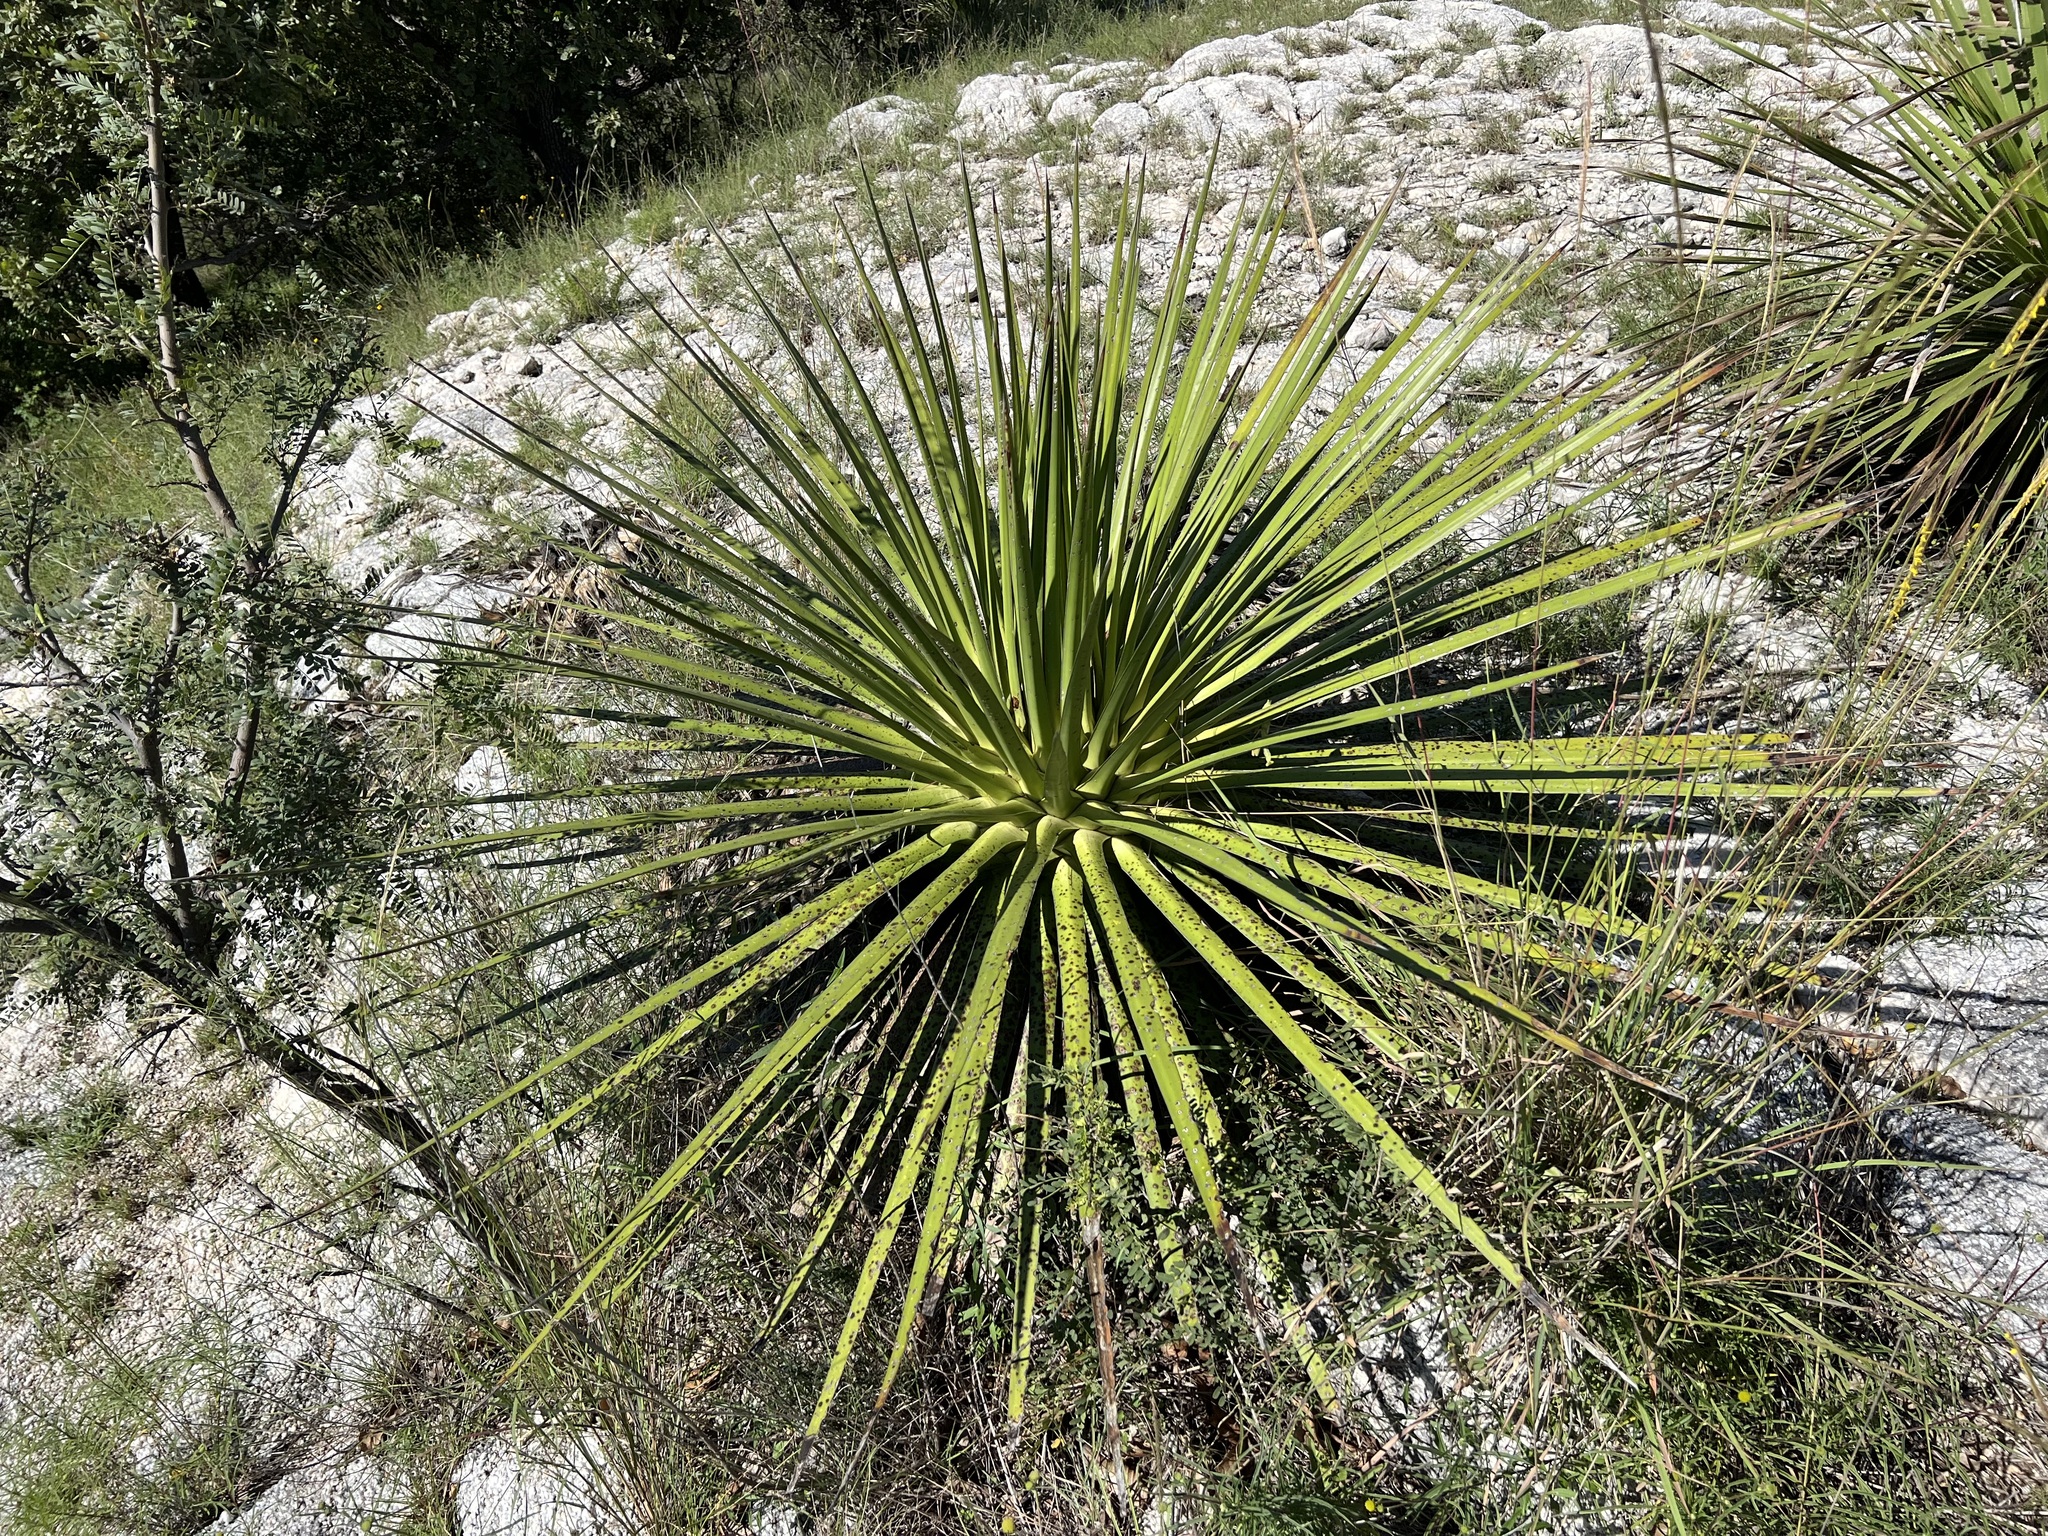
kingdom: Plantae
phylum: Tracheophyta
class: Liliopsida
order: Asparagales
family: Asparagaceae
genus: Agave
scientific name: Agave ocahui
